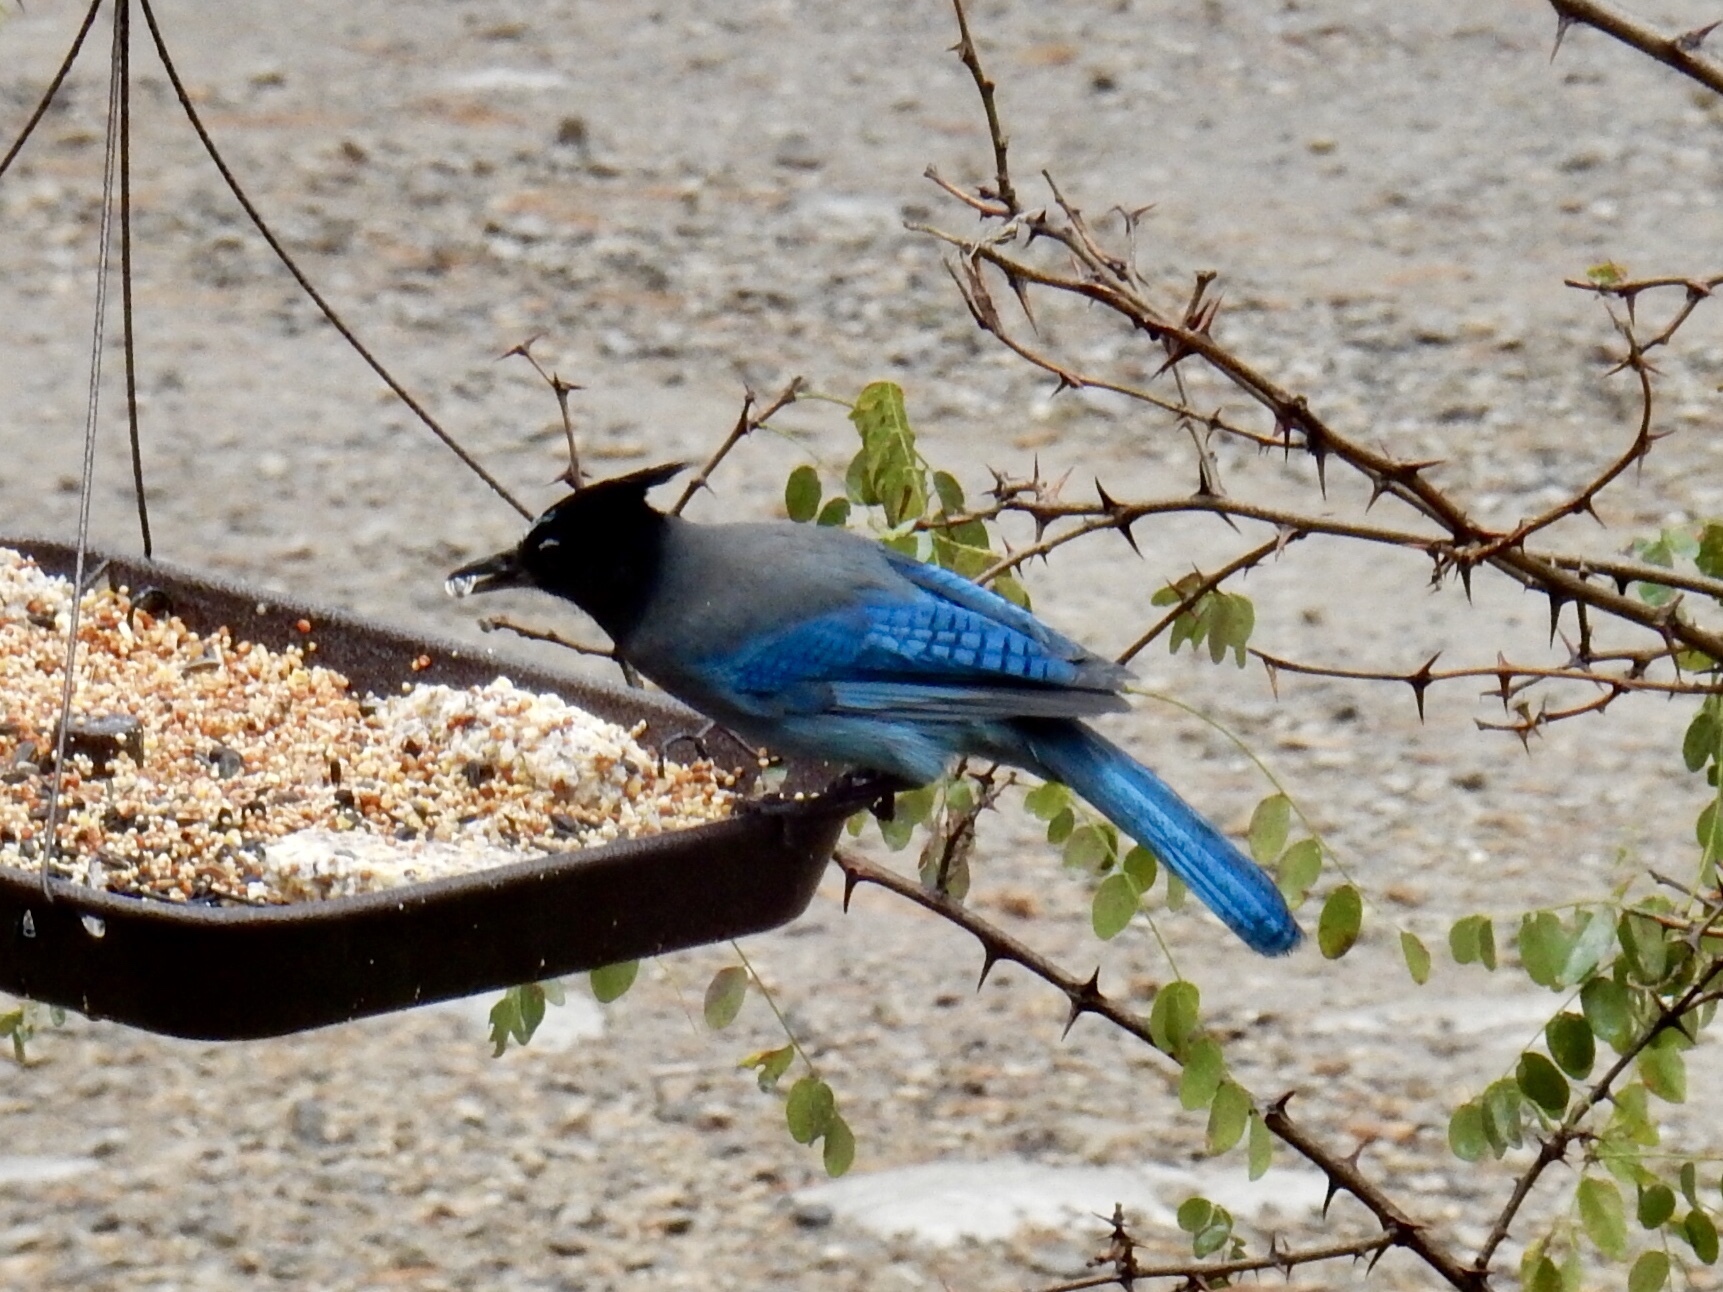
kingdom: Animalia
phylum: Chordata
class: Aves
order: Passeriformes
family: Corvidae
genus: Cyanocitta
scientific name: Cyanocitta stelleri
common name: Steller's jay
